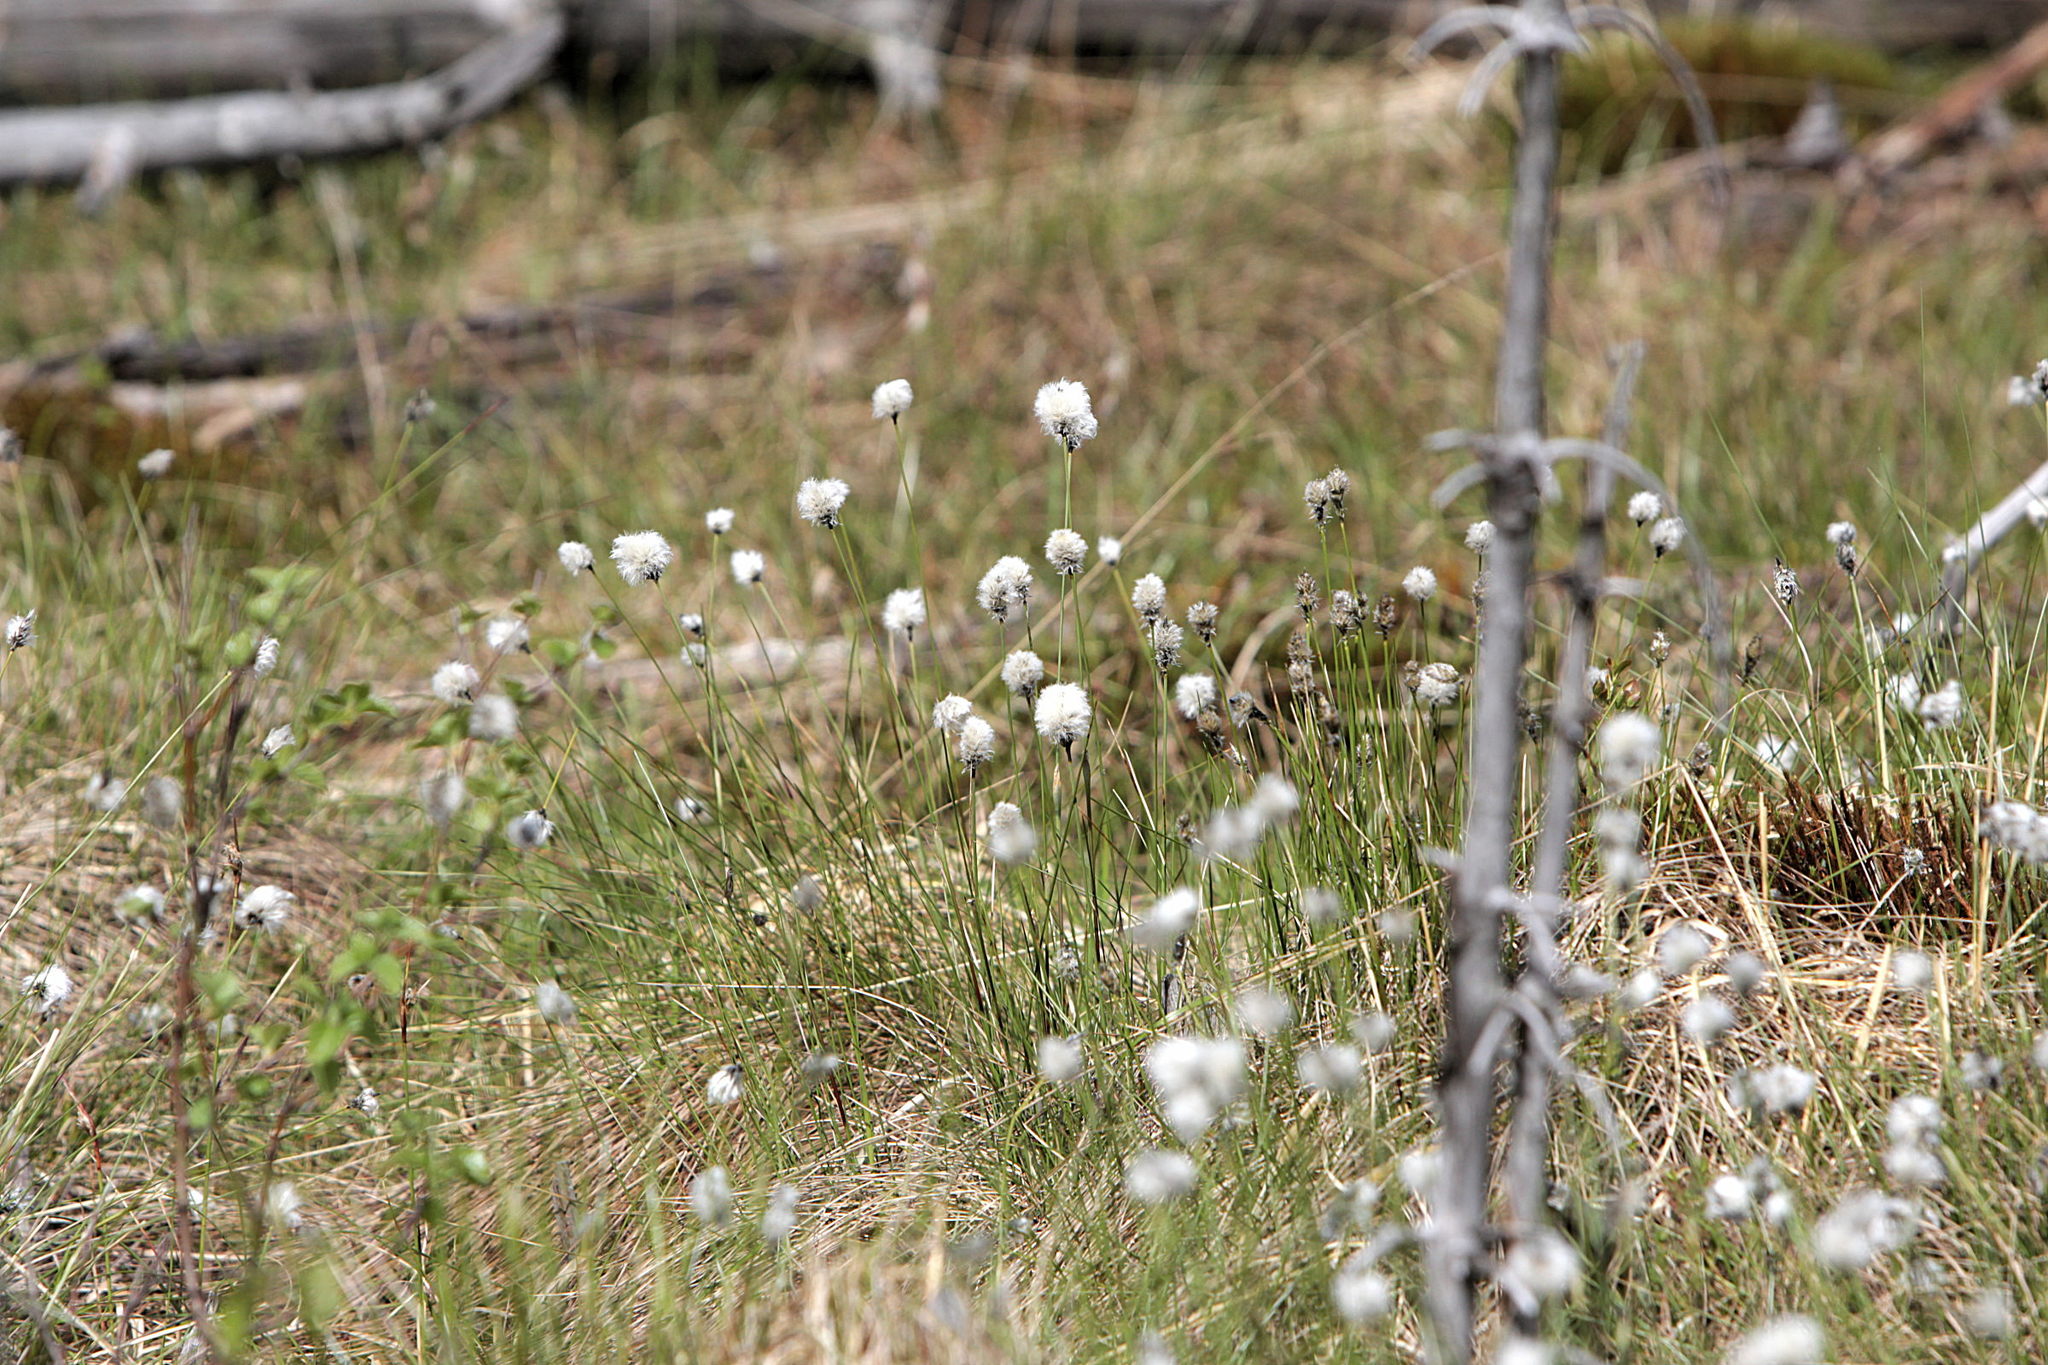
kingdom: Plantae
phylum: Tracheophyta
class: Liliopsida
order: Poales
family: Cyperaceae
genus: Eriophorum
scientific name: Eriophorum vaginatum
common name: Hare's-tail cottongrass
